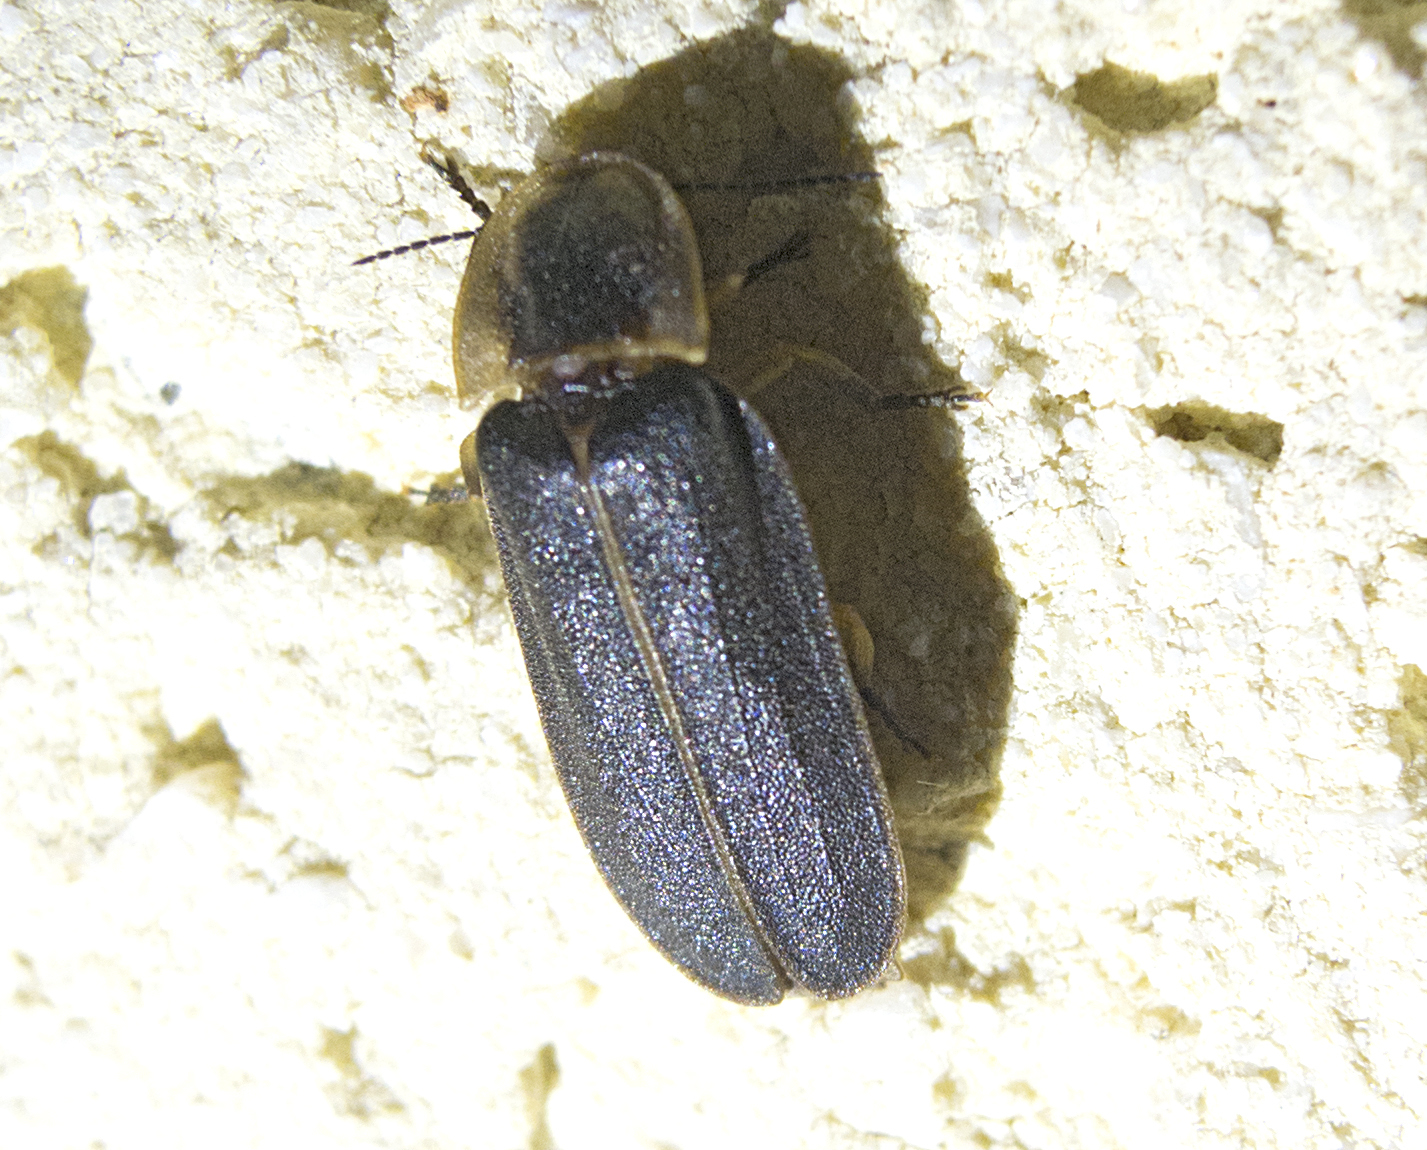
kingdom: Animalia
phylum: Arthropoda
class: Insecta
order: Coleoptera
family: Lampyridae
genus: Lampyris
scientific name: Lampyris noctiluca
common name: Glow-worm
